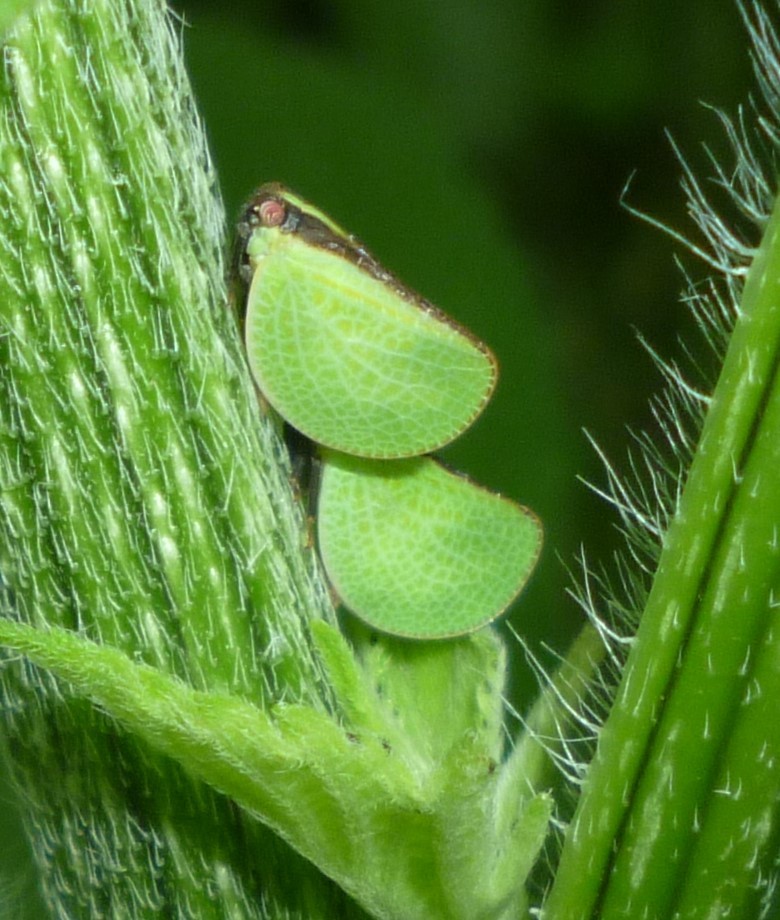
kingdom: Animalia
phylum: Arthropoda
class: Insecta
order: Hemiptera
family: Acanaloniidae
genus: Acanalonia
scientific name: Acanalonia bivittata
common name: Two-striped planthopper
